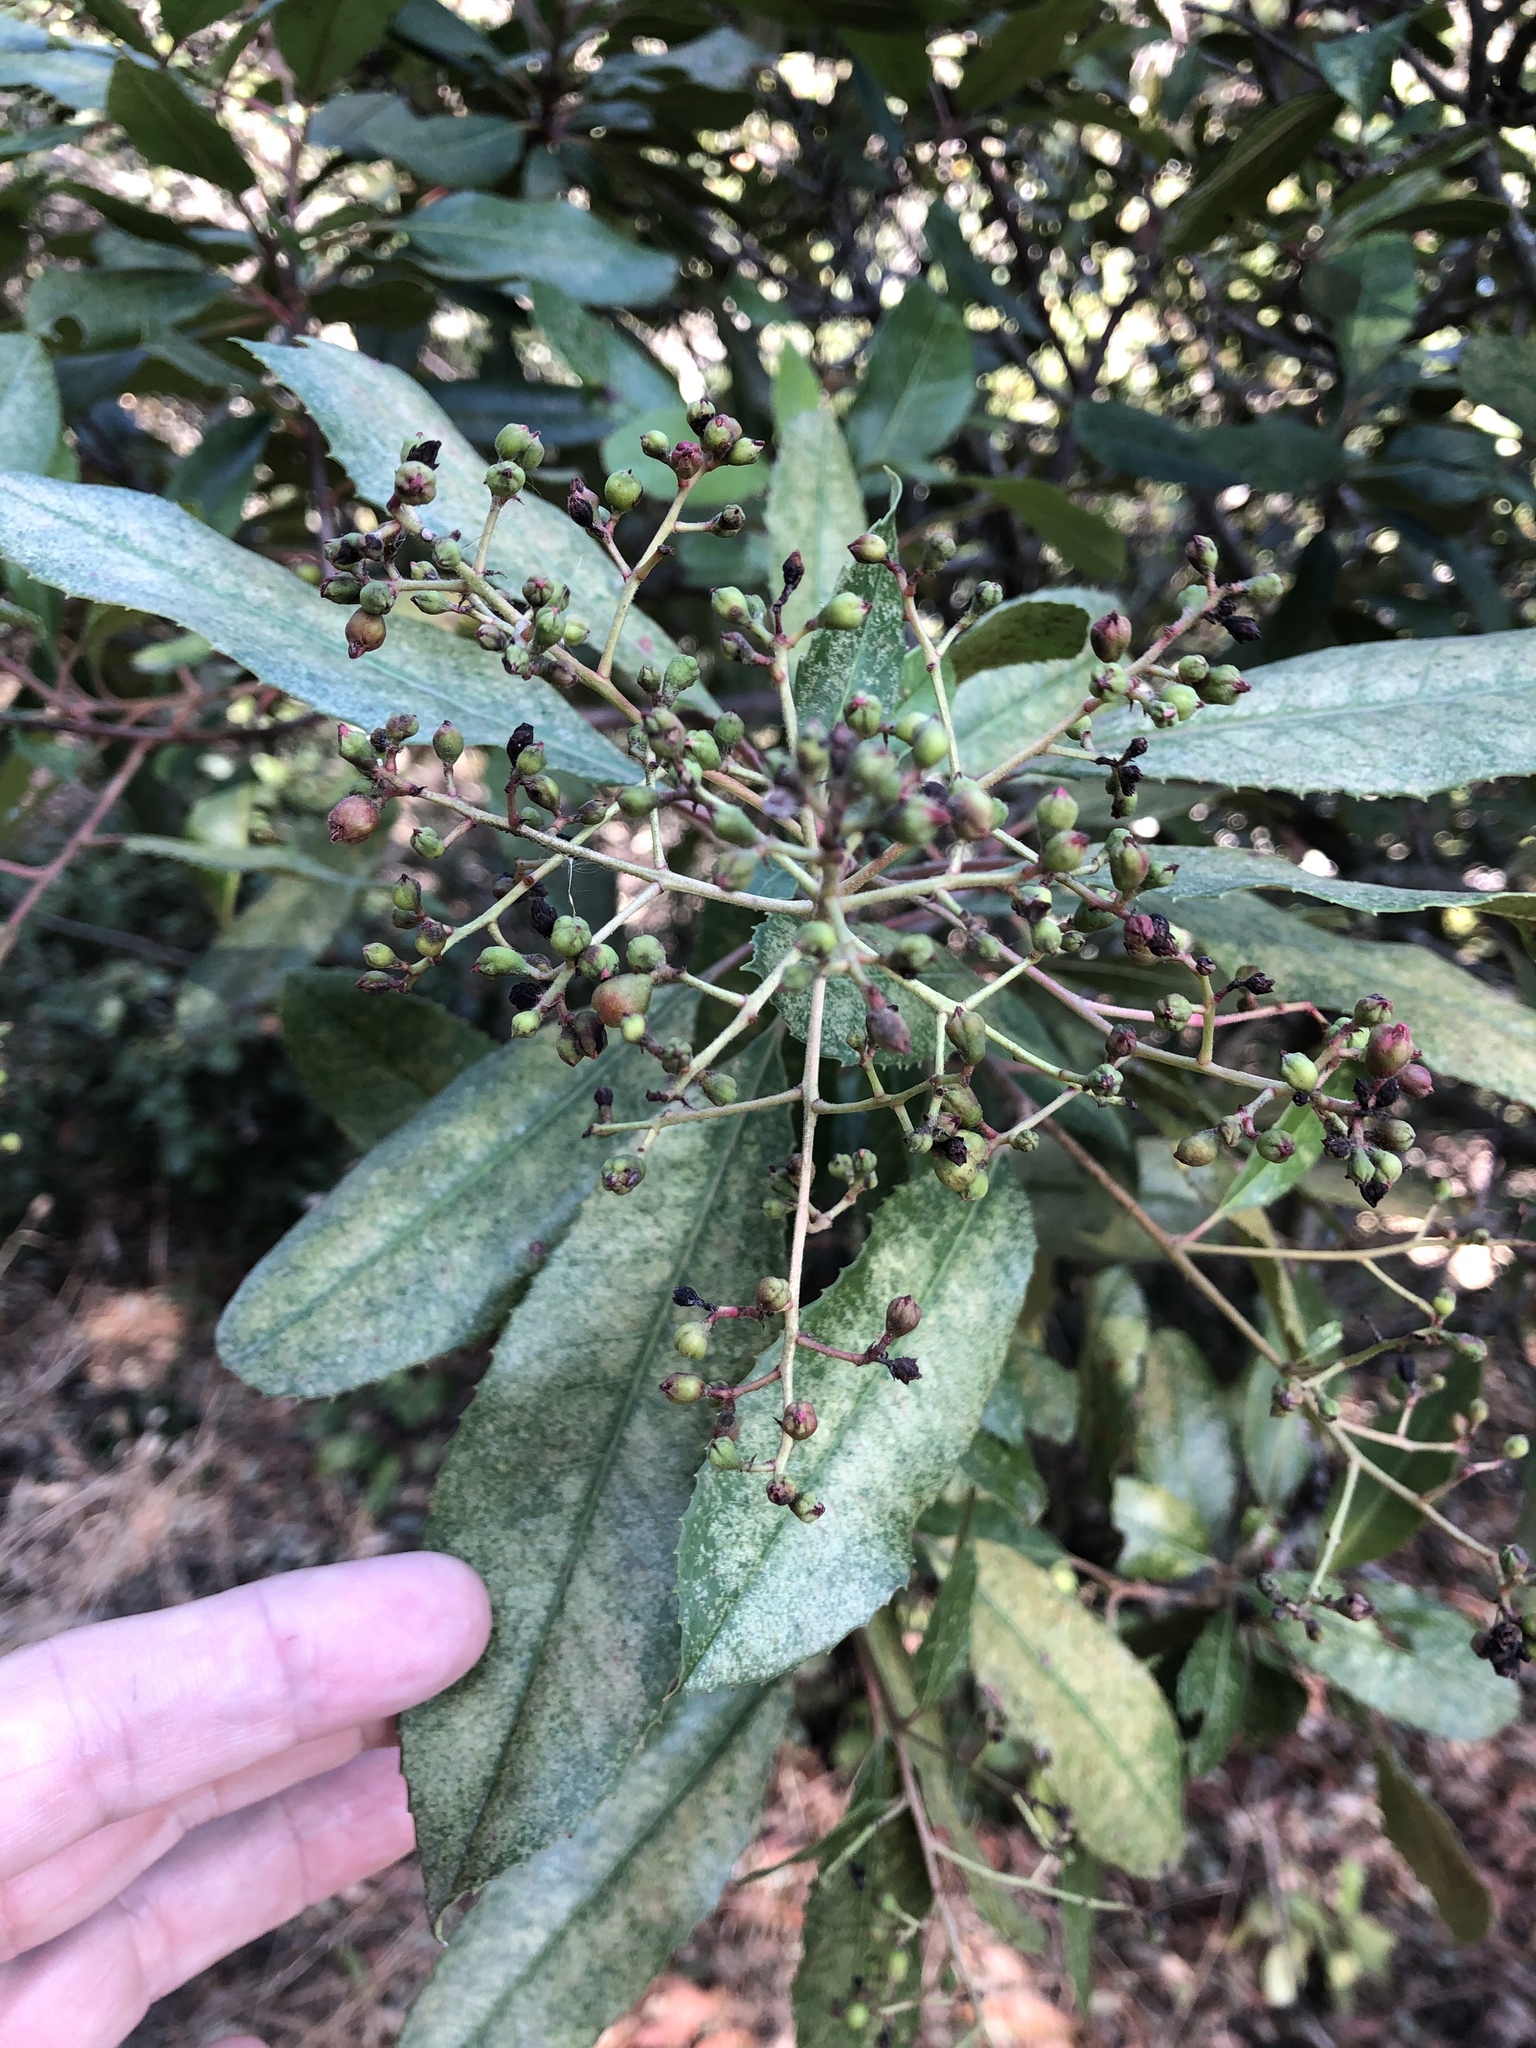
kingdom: Plantae
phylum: Tracheophyta
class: Magnoliopsida
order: Rosales
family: Rosaceae
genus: Heteromeles
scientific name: Heteromeles arbutifolia
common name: California-holly
